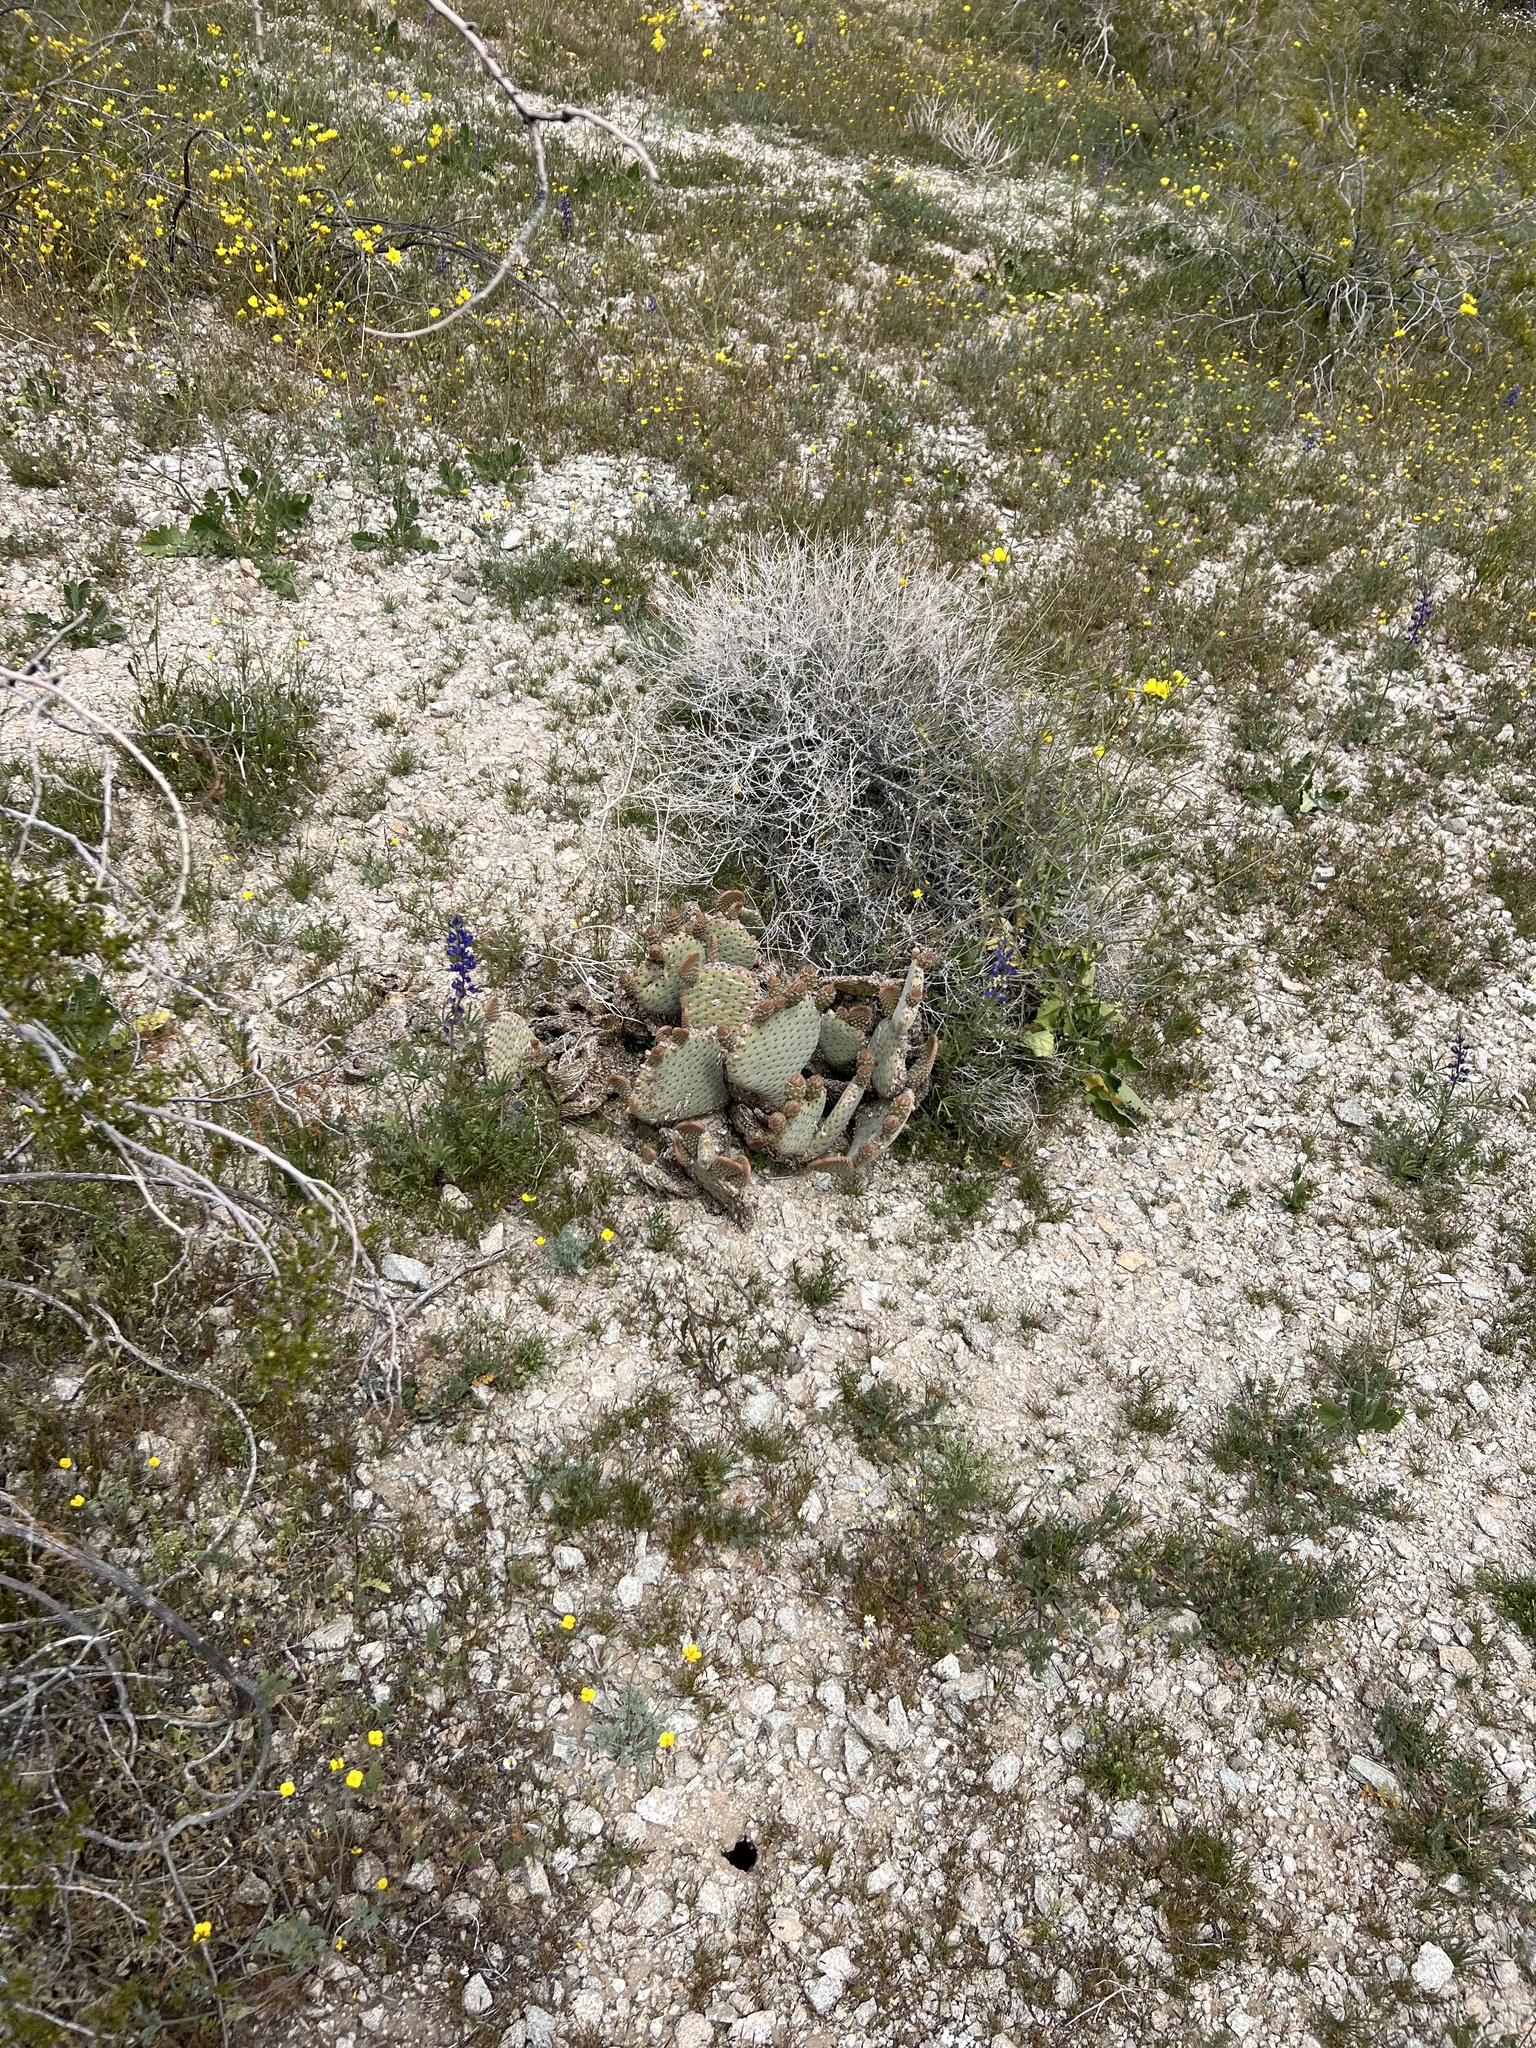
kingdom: Plantae
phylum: Tracheophyta
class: Magnoliopsida
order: Caryophyllales
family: Cactaceae
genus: Opuntia
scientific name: Opuntia basilaris
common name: Beavertail prickly-pear
